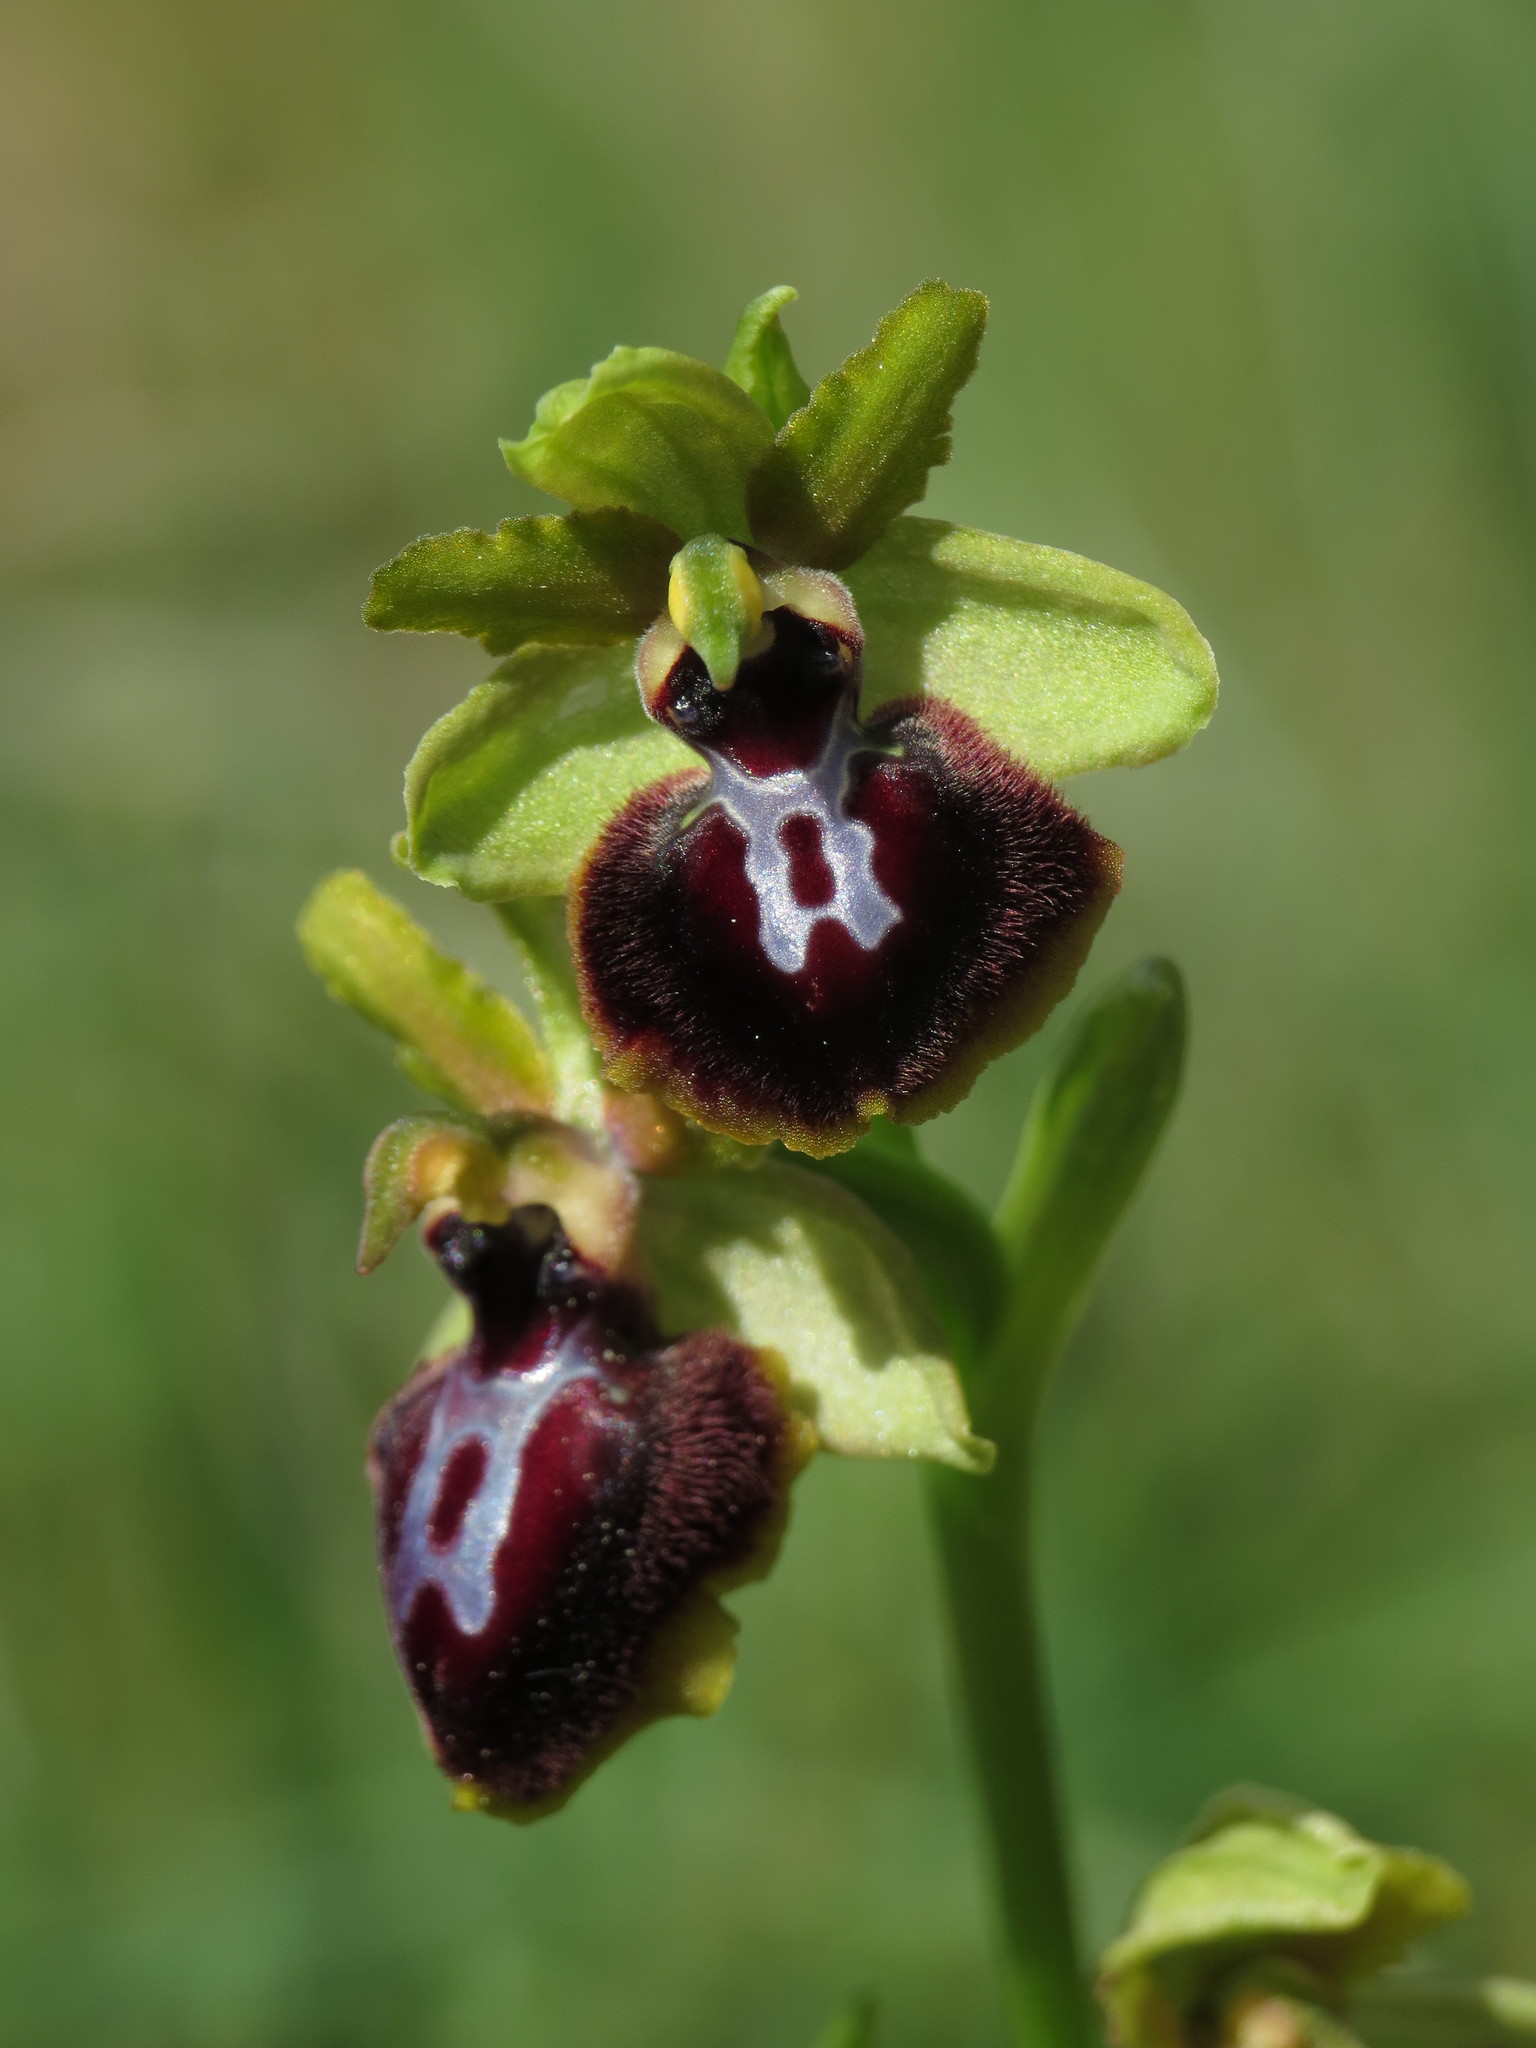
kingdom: Plantae
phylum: Tracheophyta
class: Liliopsida
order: Asparagales
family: Orchidaceae
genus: Ophrys
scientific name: Ophrys sphegodes
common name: Early spider-orchid
